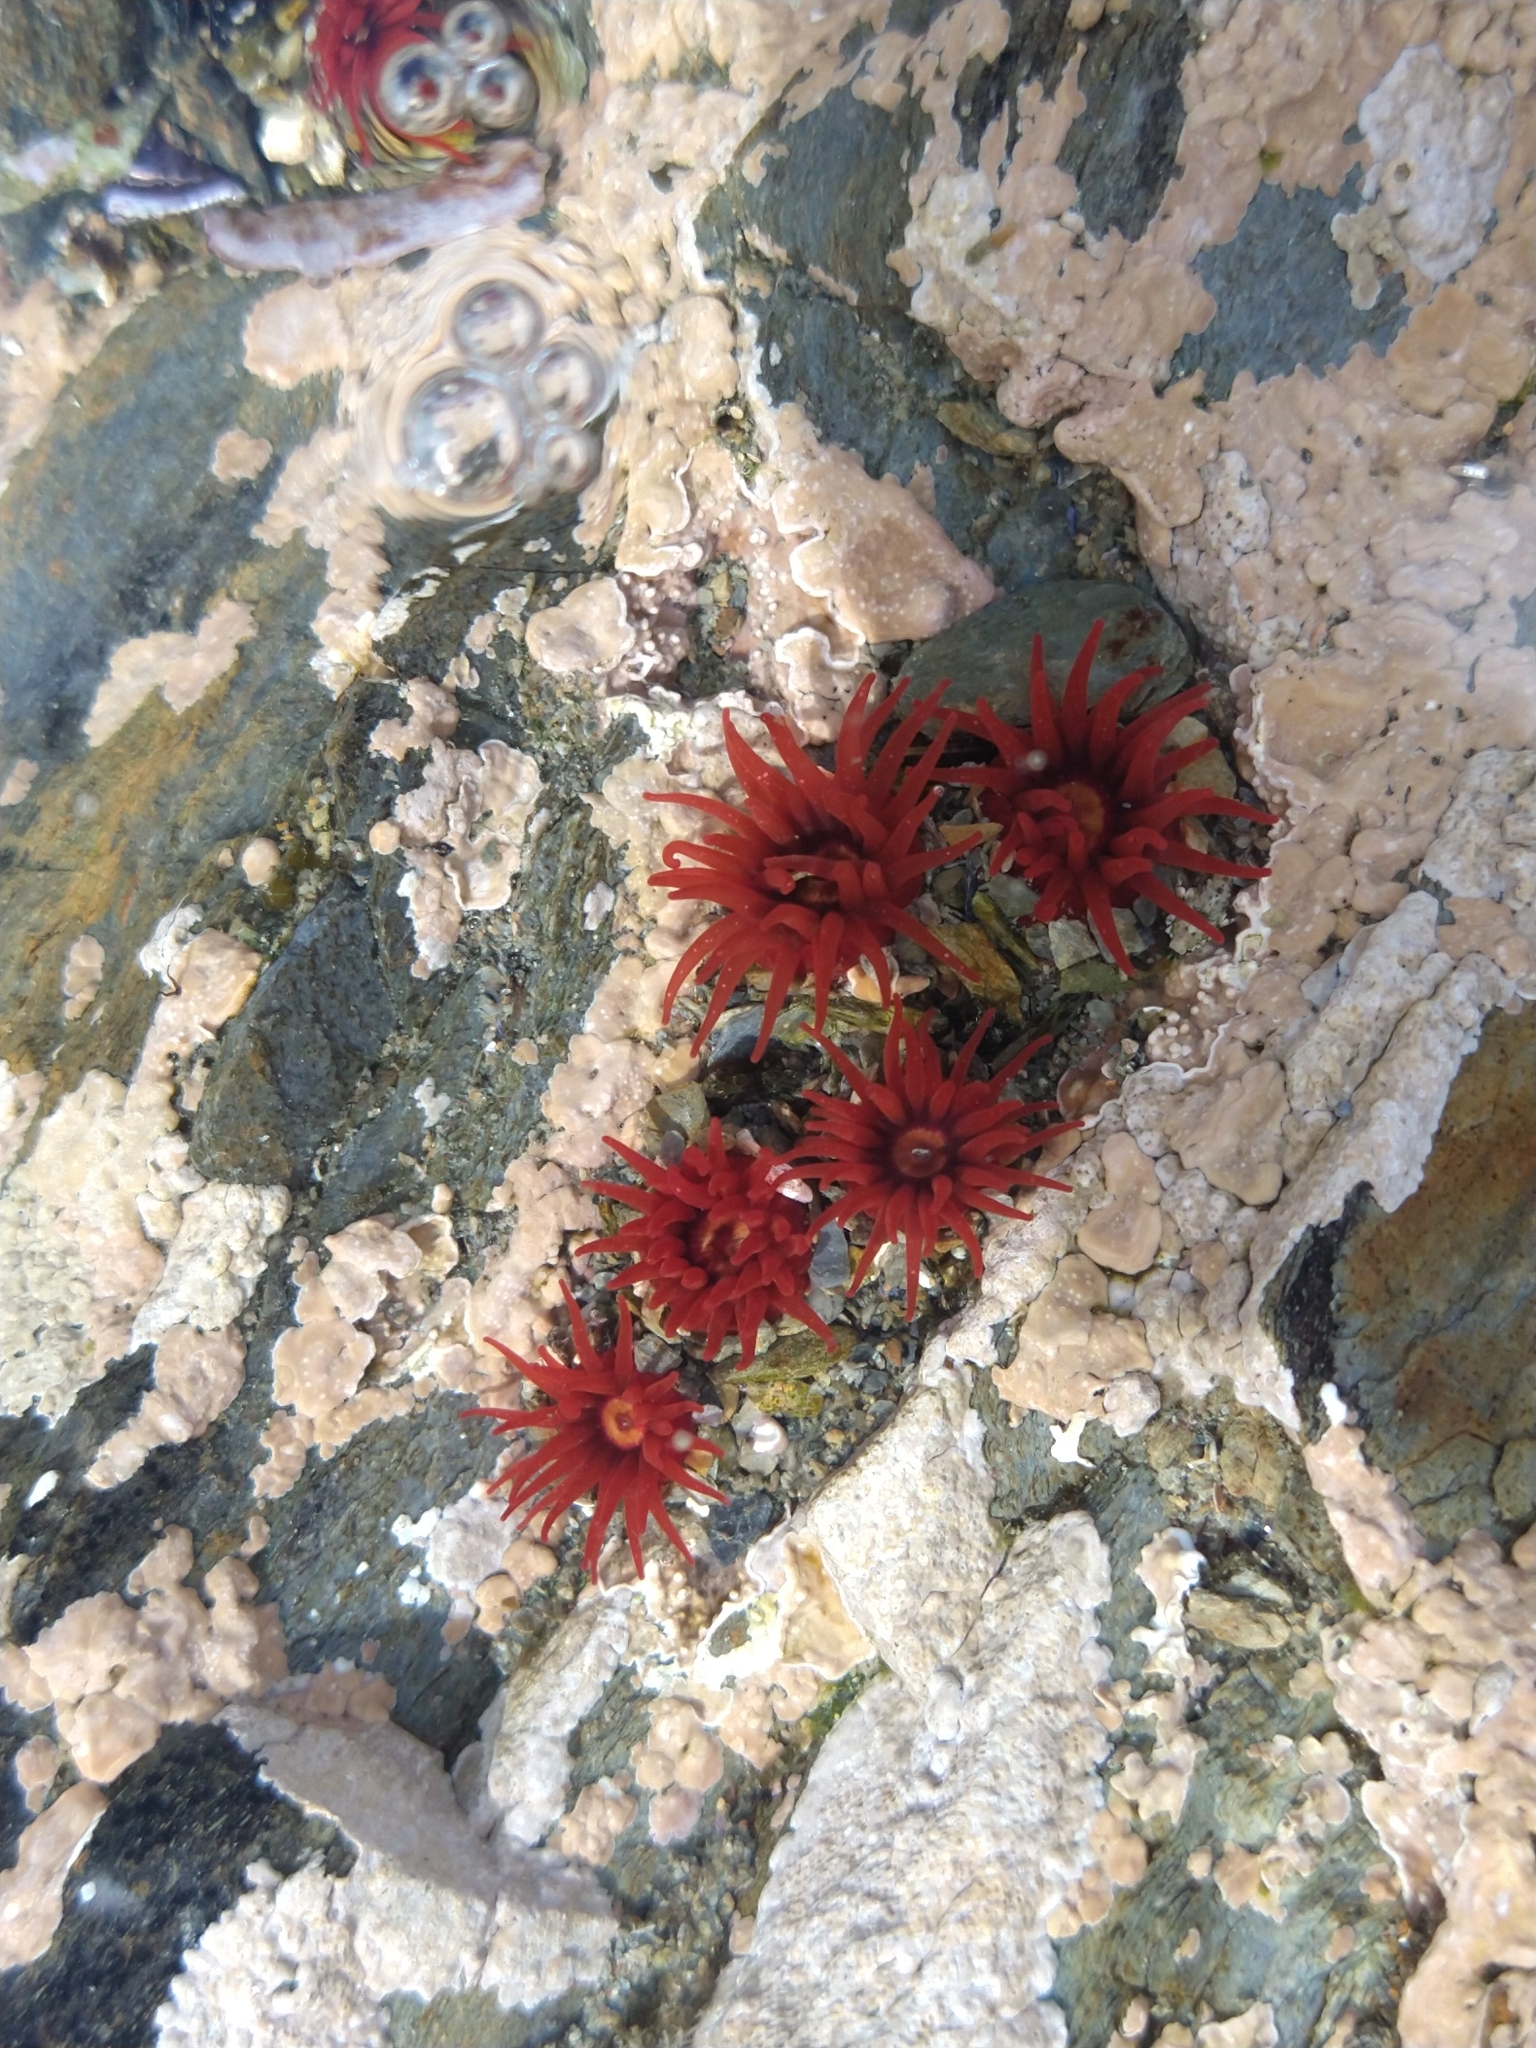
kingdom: Animalia
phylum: Cnidaria
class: Anthozoa
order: Actiniaria
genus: Paractis
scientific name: Paractis impatiens
